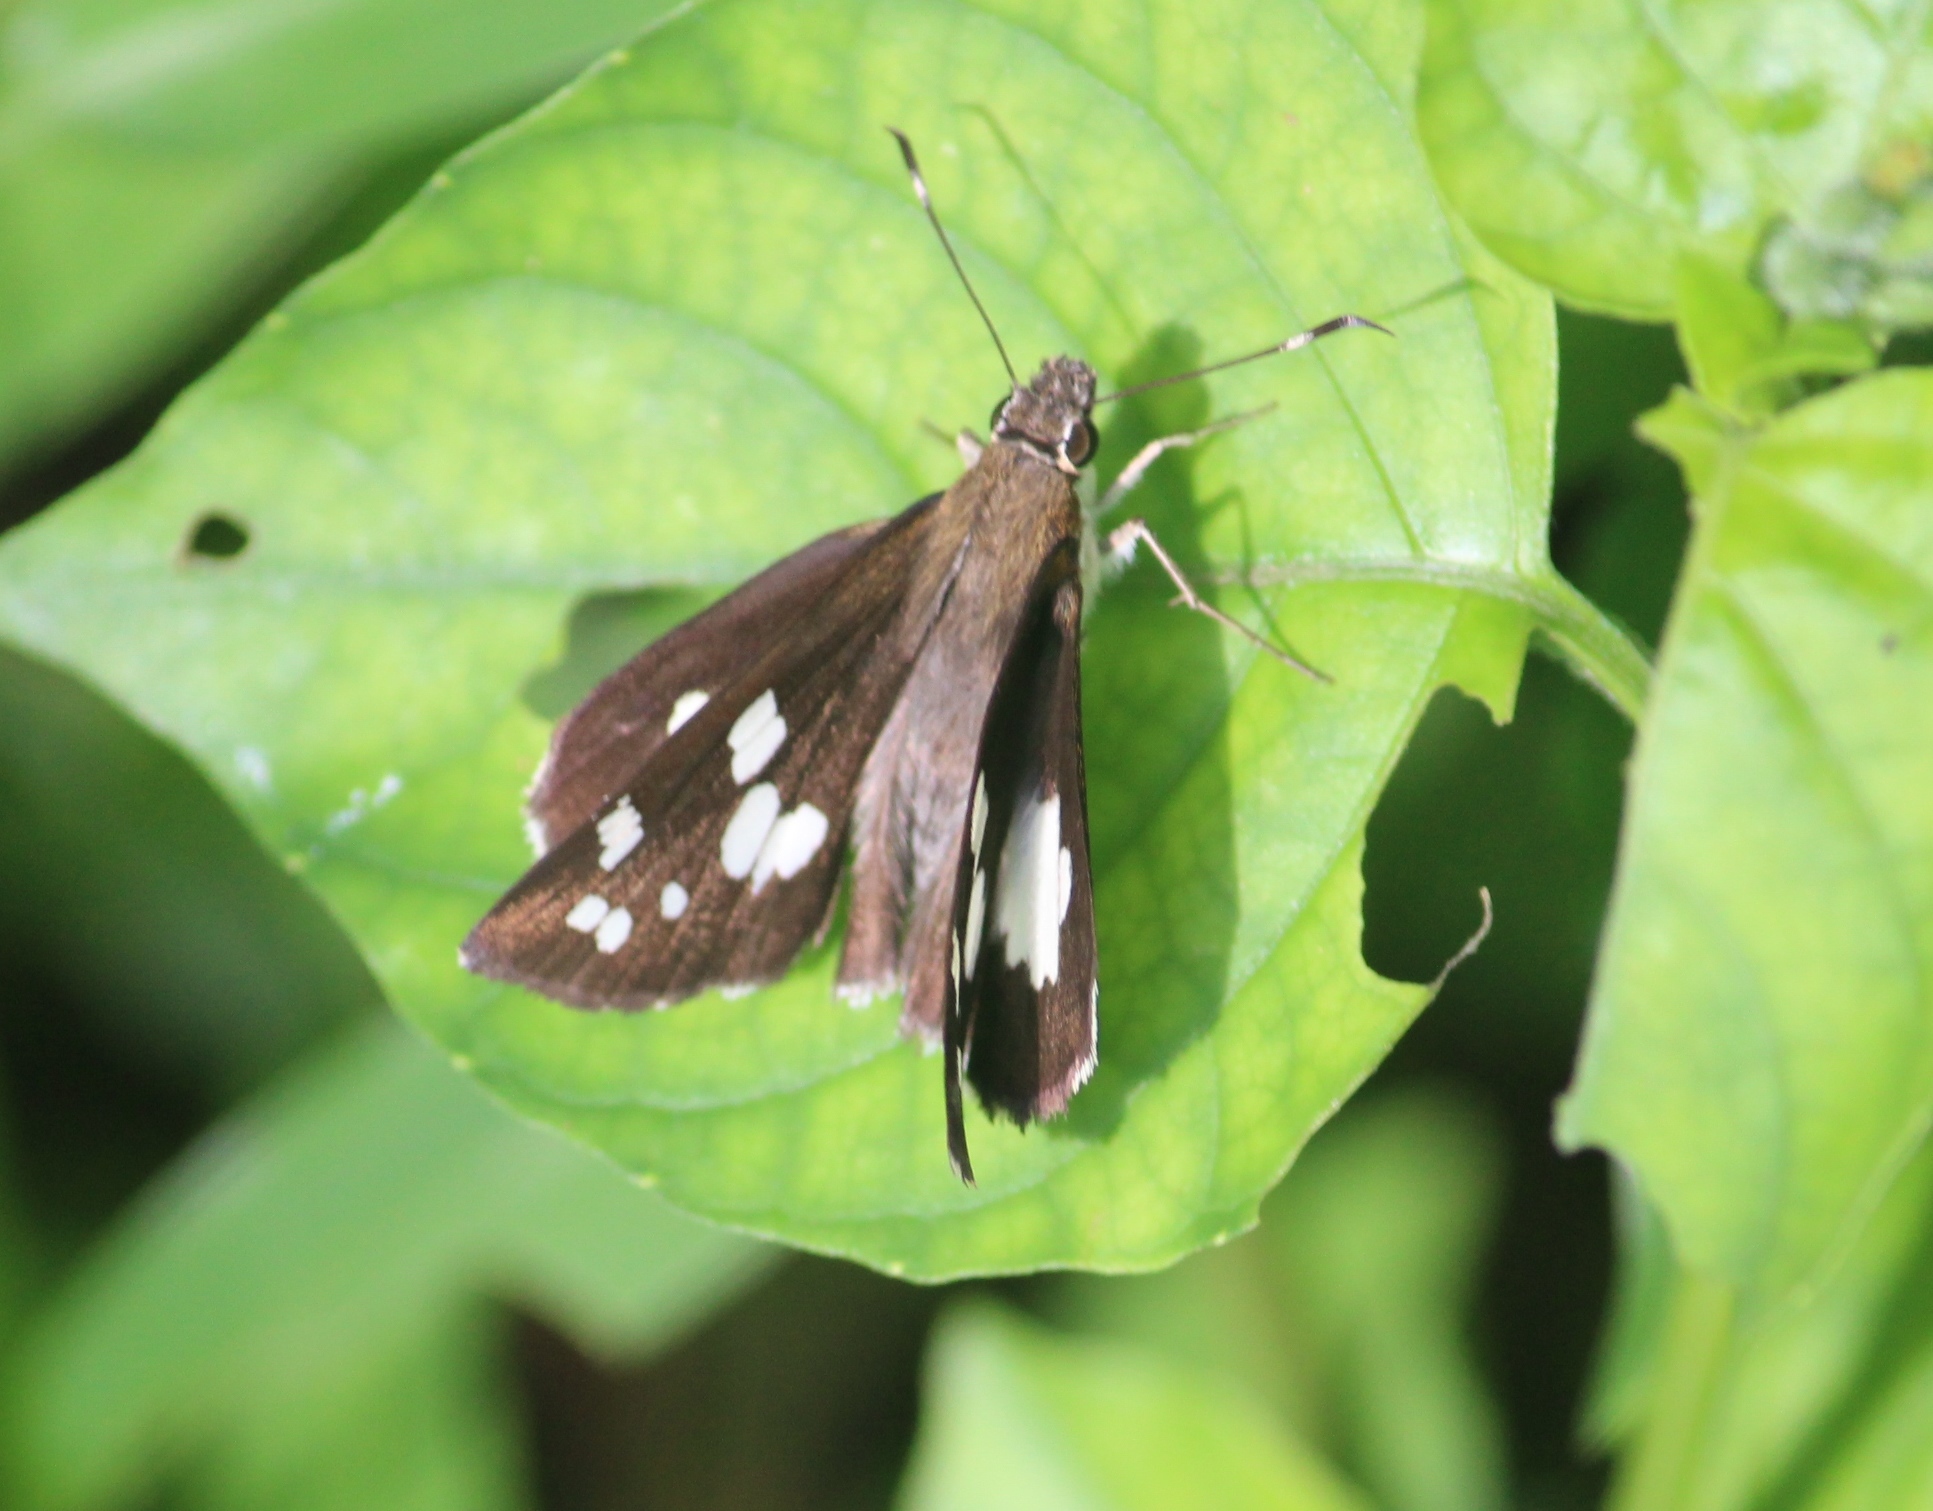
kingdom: Animalia
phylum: Arthropoda
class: Insecta
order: Lepidoptera
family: Hesperiidae
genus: Udaspes
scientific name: Udaspes folus
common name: Grass demon
